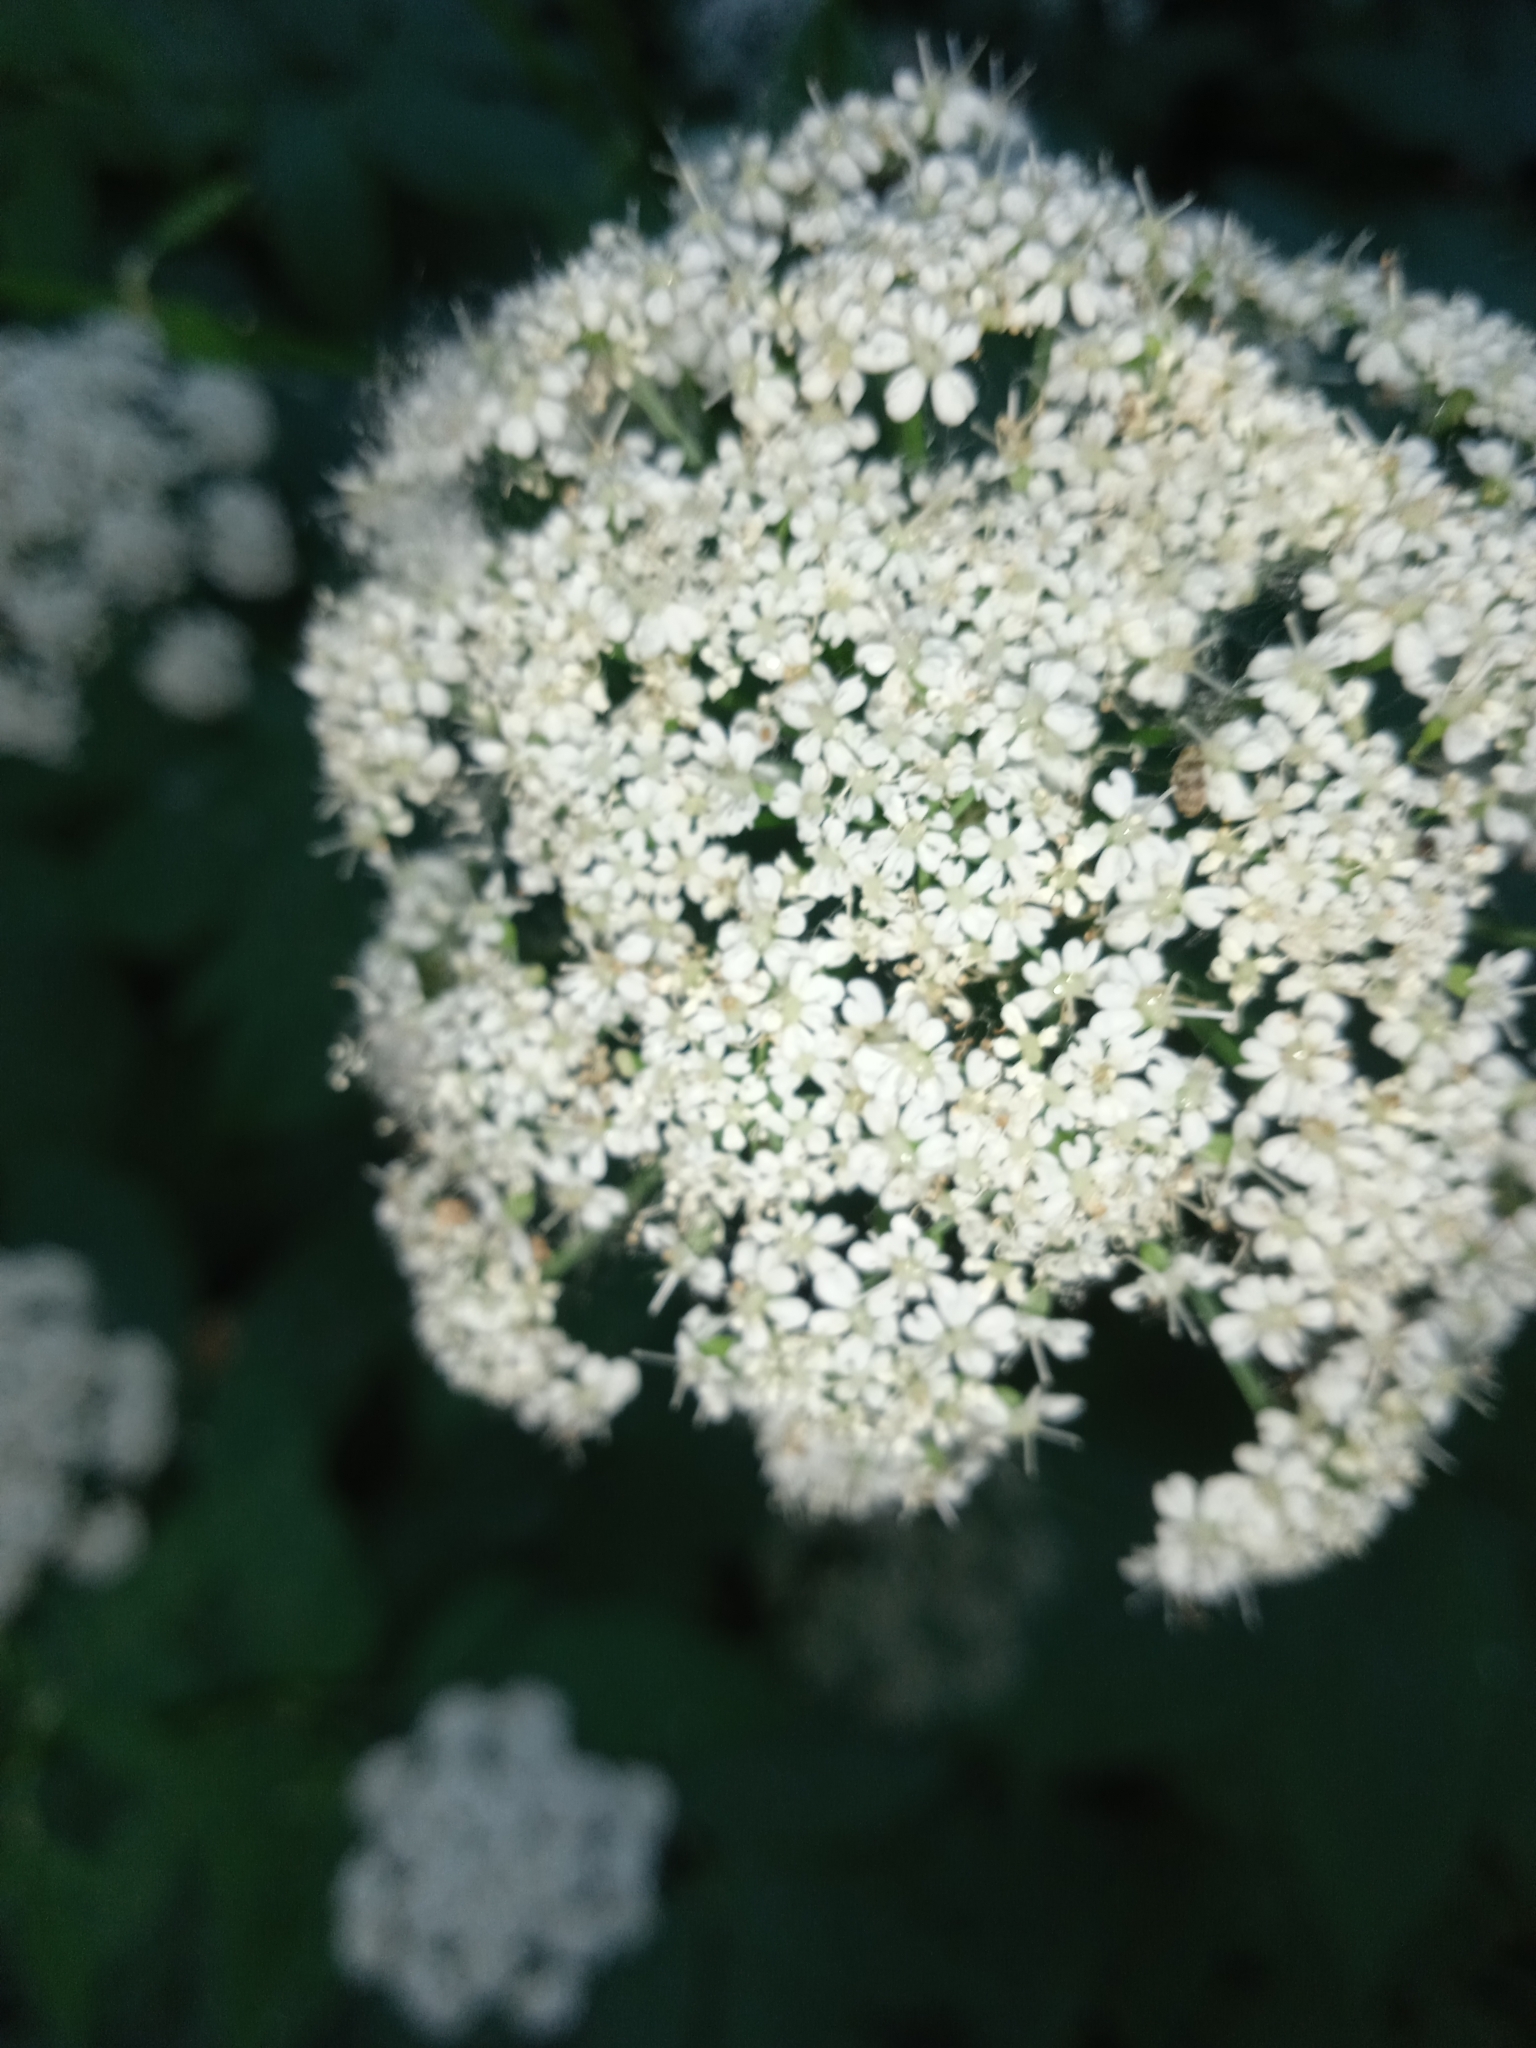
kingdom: Plantae
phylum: Tracheophyta
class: Magnoliopsida
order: Apiales
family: Apiaceae
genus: Aegopodium
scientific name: Aegopodium podagraria
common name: Ground-elder
